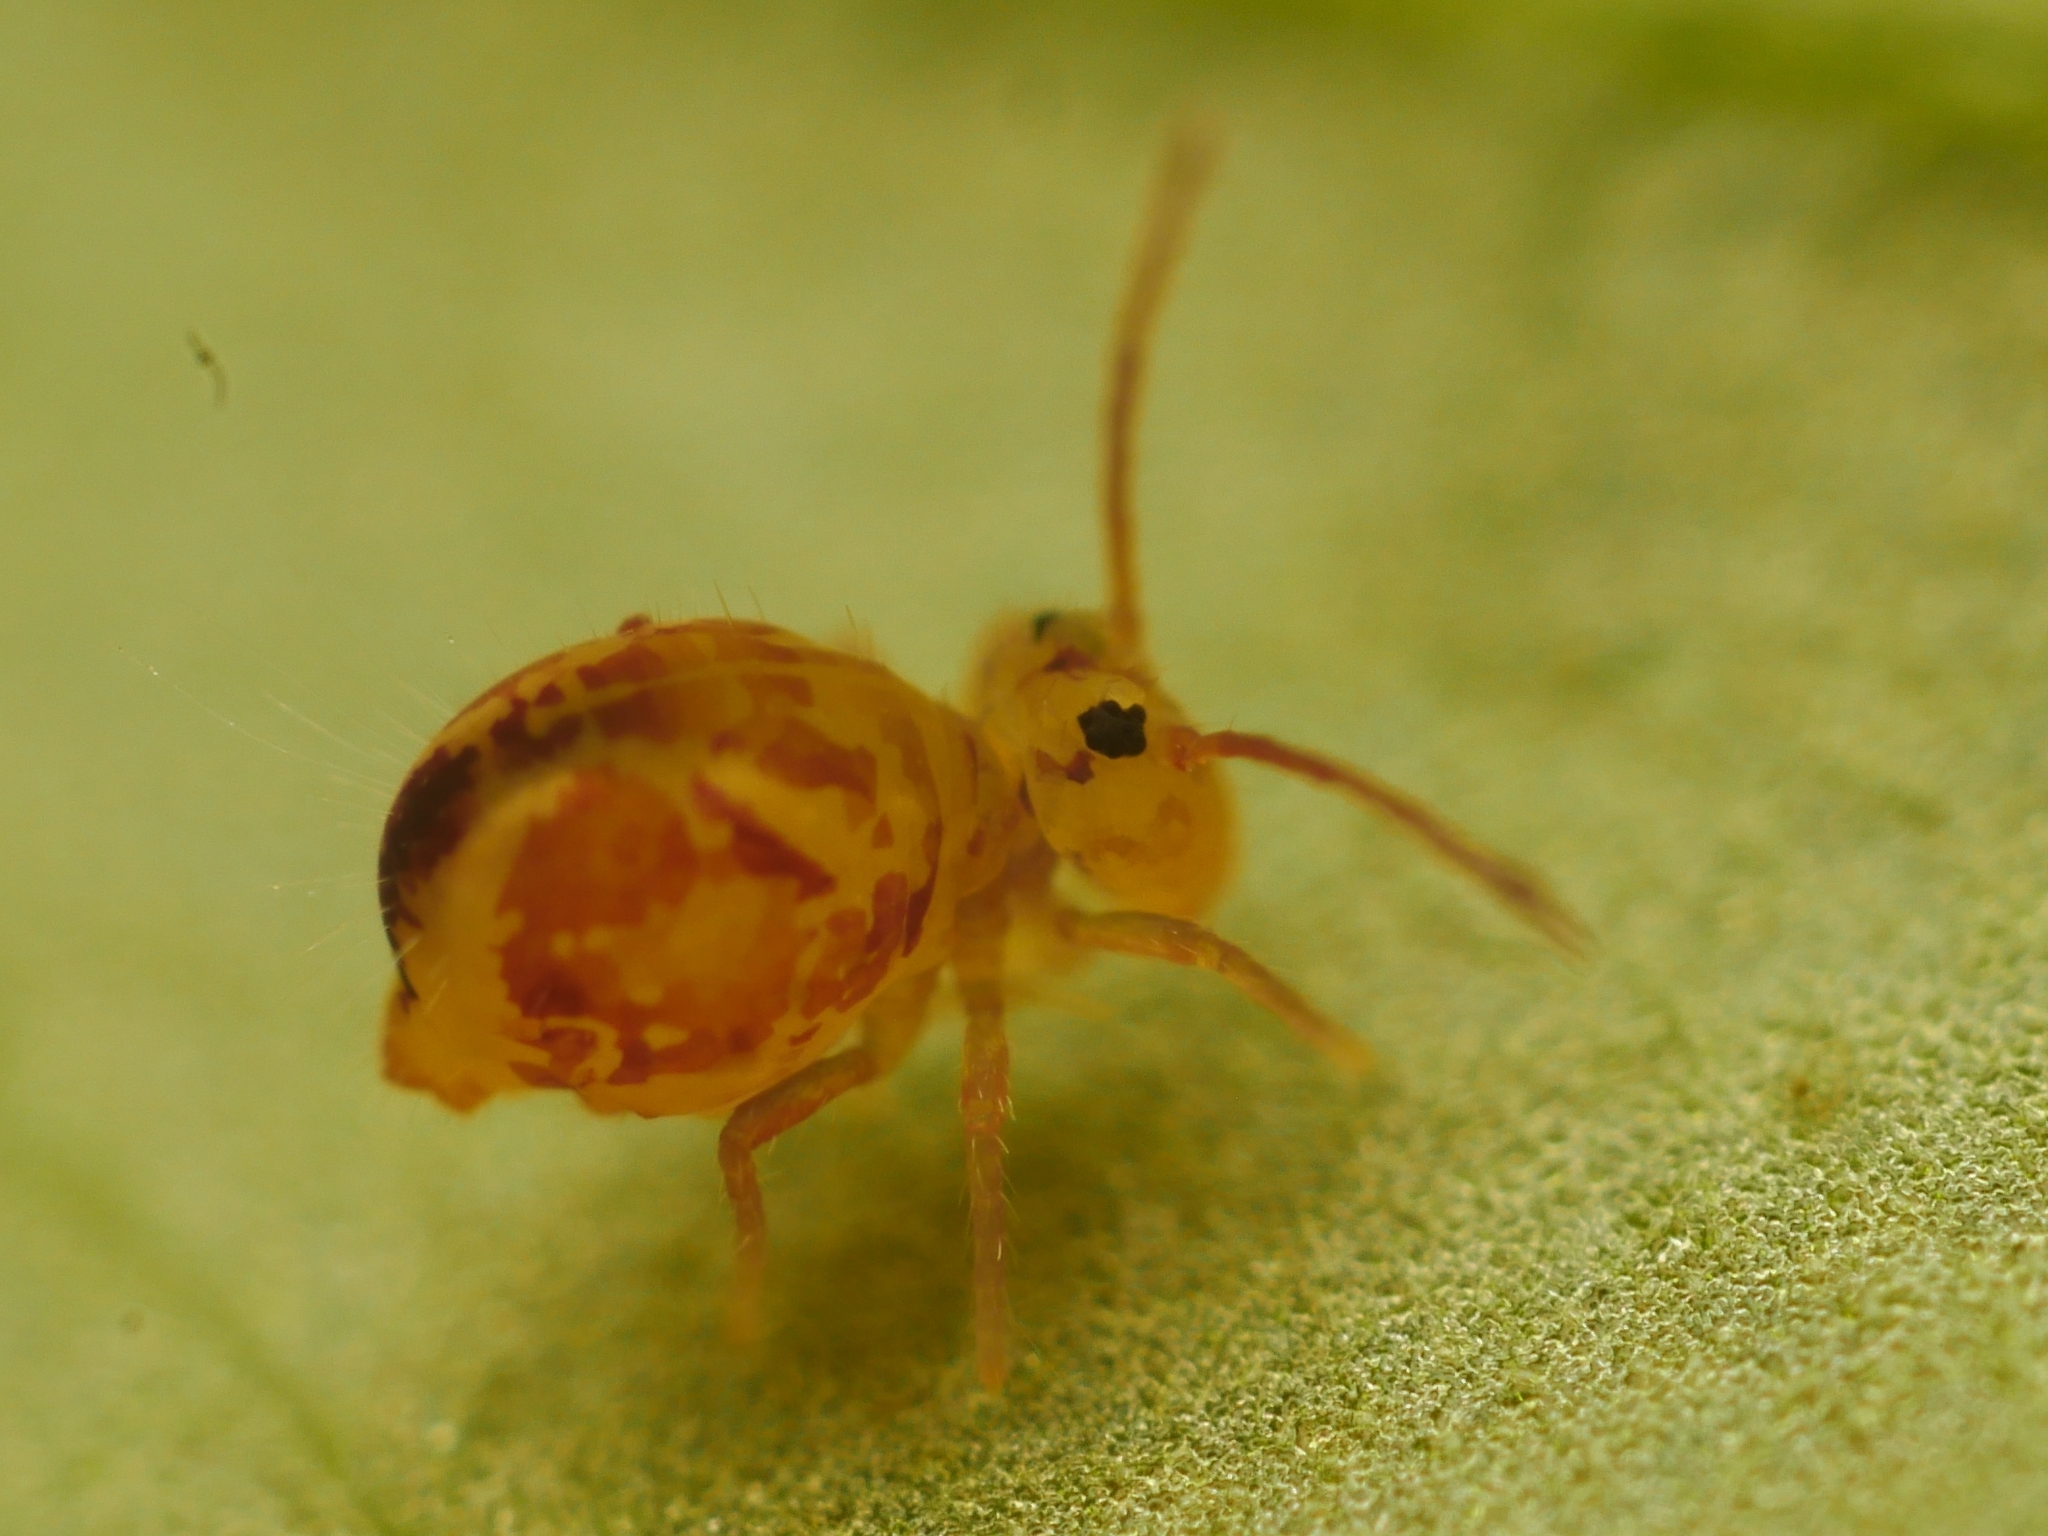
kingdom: Animalia
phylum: Arthropoda
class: Collembola
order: Symphypleona
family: Dicyrtomidae
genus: Dicyrtomina
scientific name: Dicyrtomina ornata
